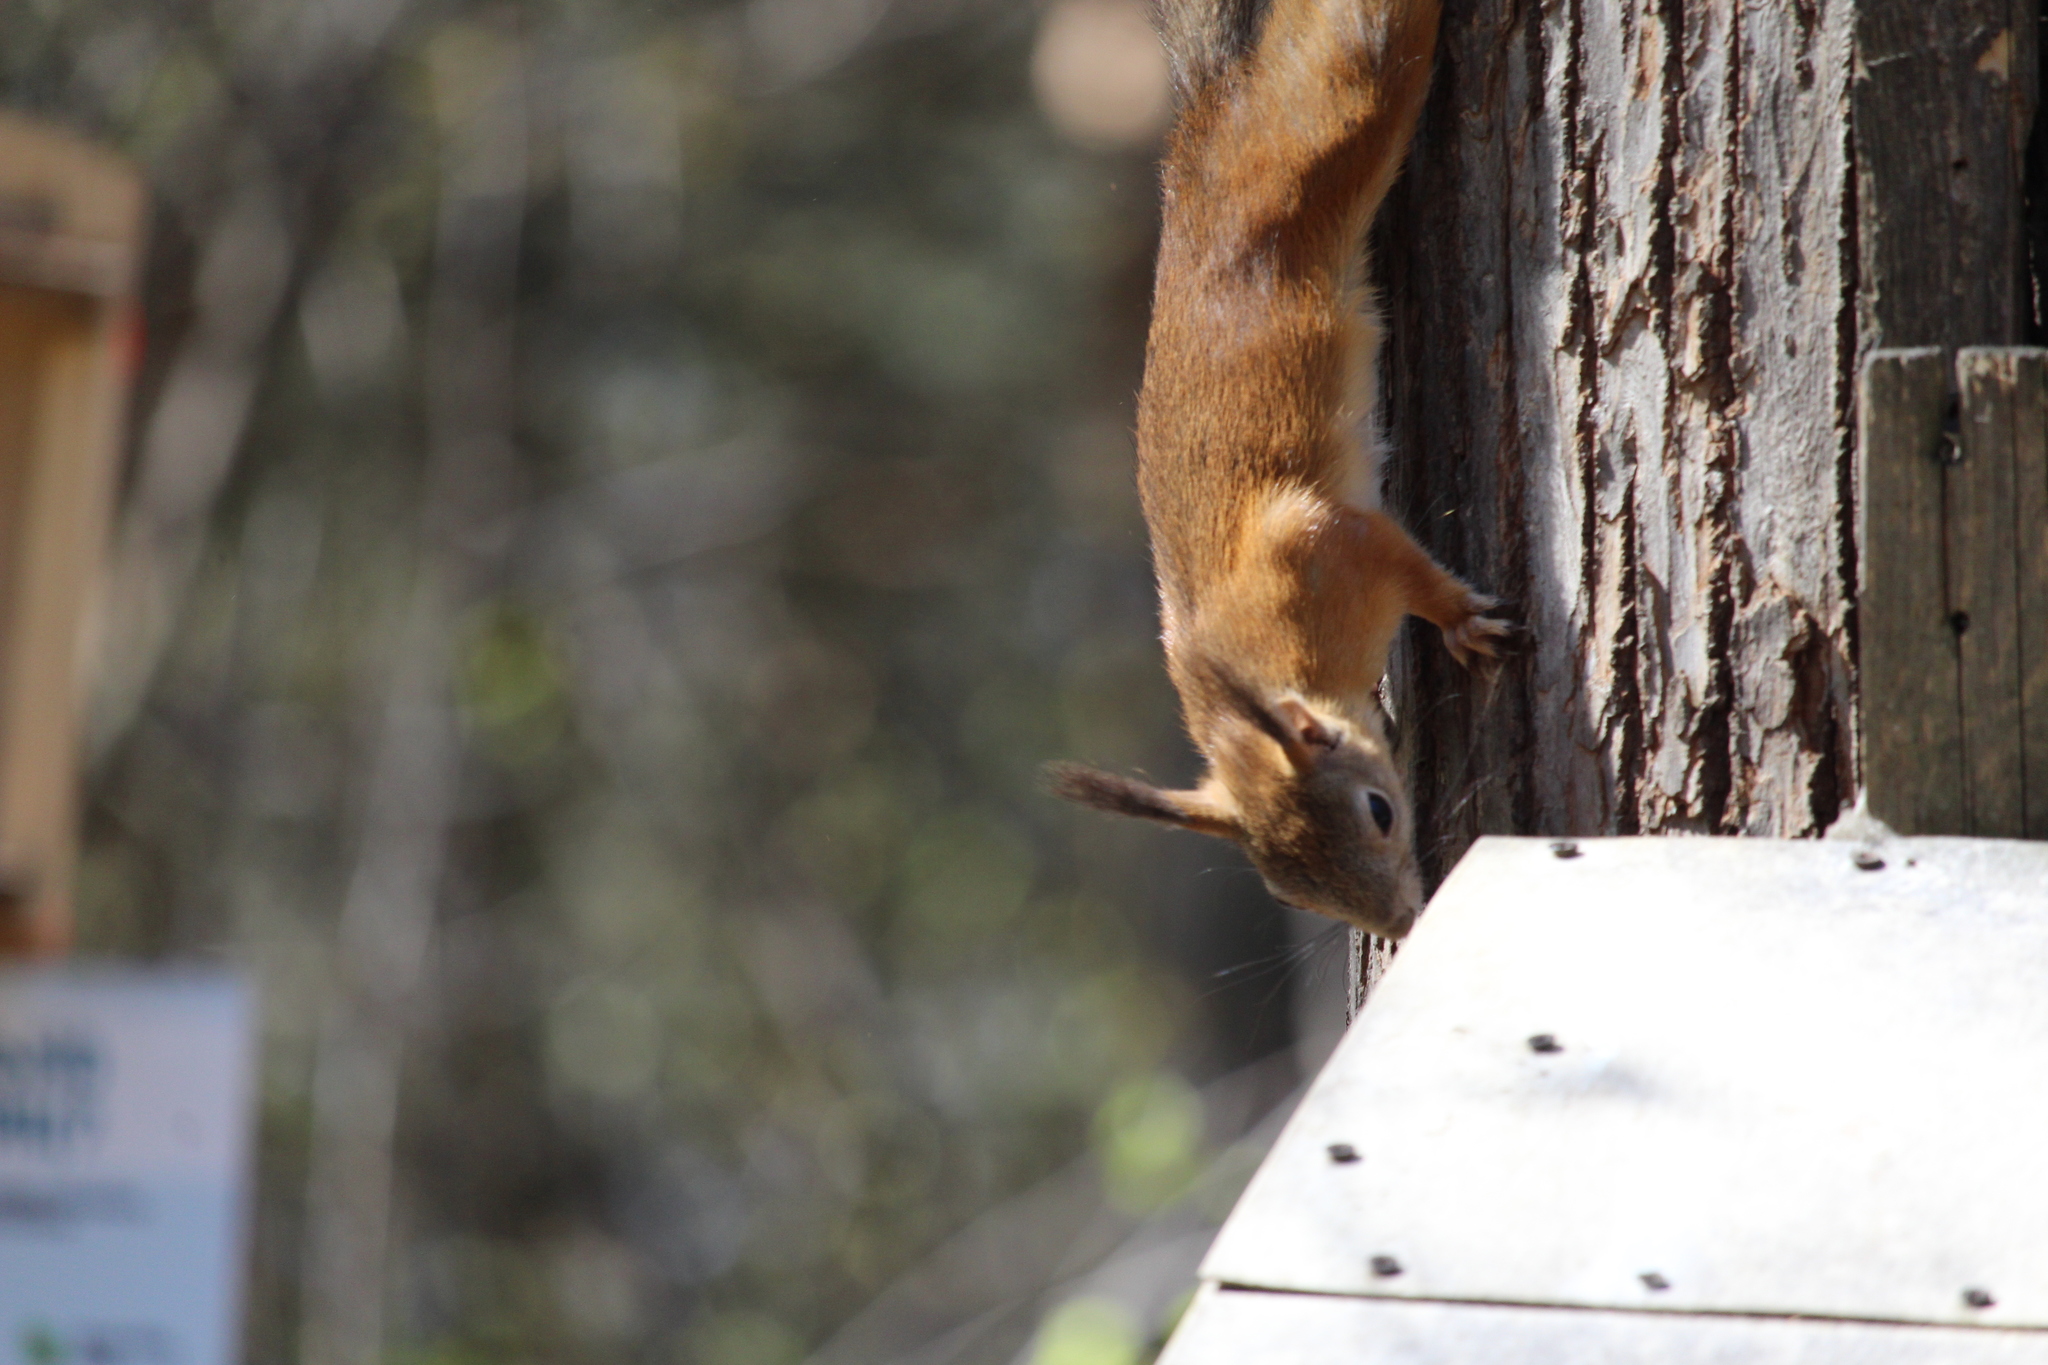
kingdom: Animalia
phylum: Chordata
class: Mammalia
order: Rodentia
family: Sciuridae
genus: Sciurus
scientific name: Sciurus vulgaris
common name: Eurasian red squirrel
